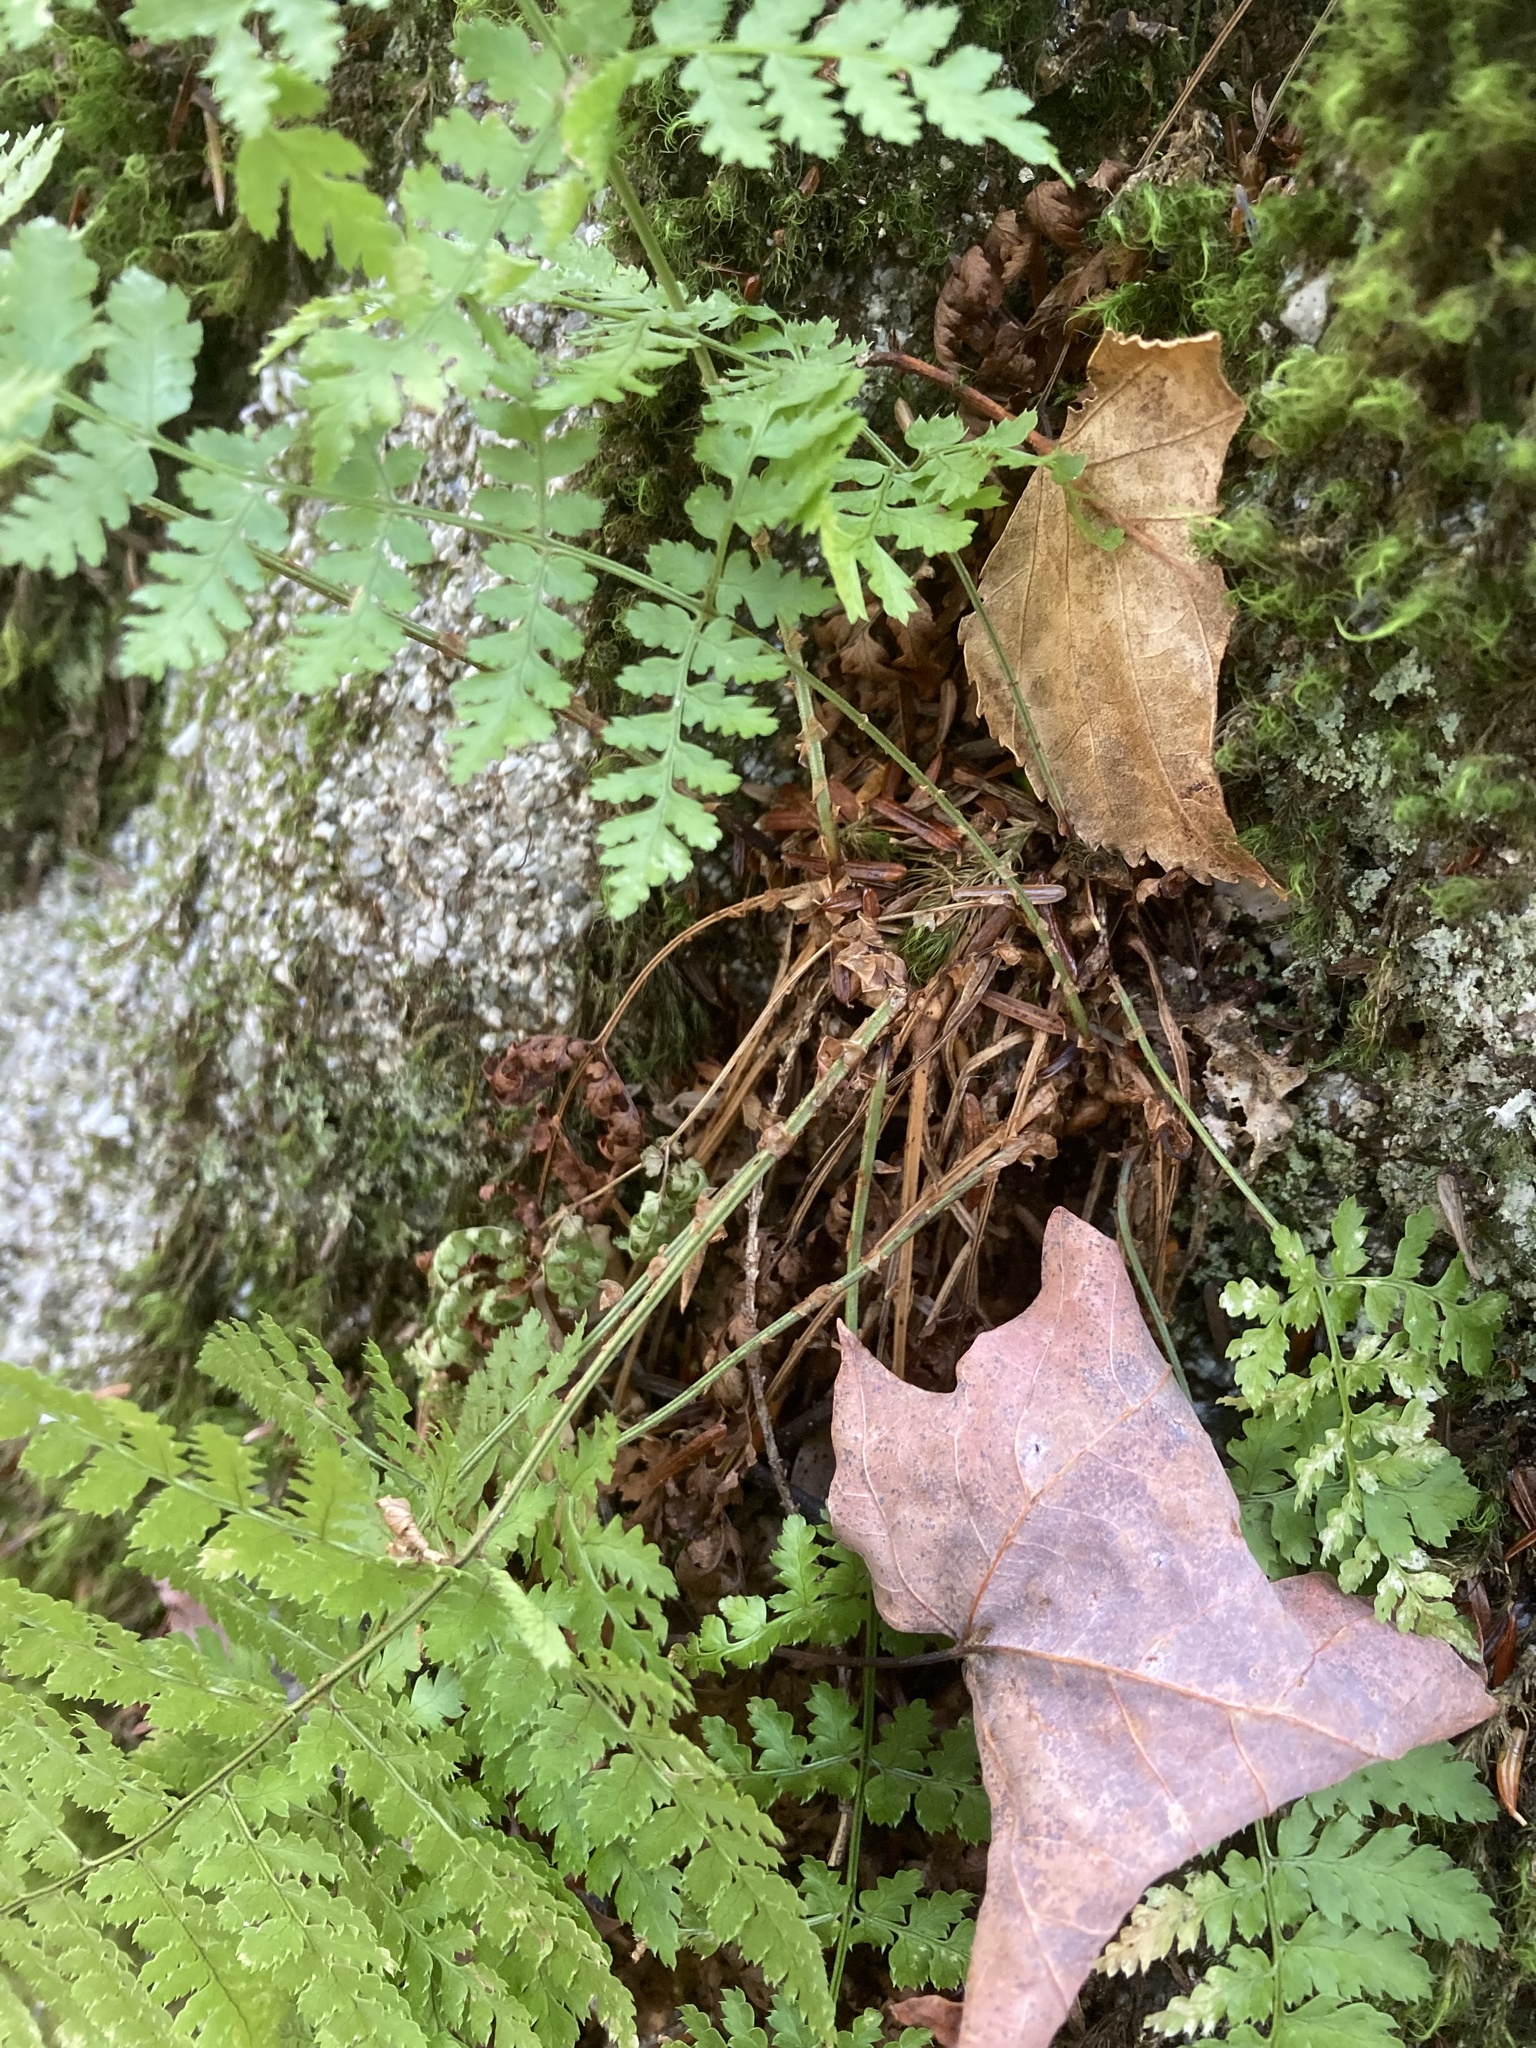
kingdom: Plantae
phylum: Tracheophyta
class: Polypodiopsida
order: Polypodiales
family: Dryopteridaceae
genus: Dryopteris
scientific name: Dryopteris intermedia
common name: Evergreen wood fern
